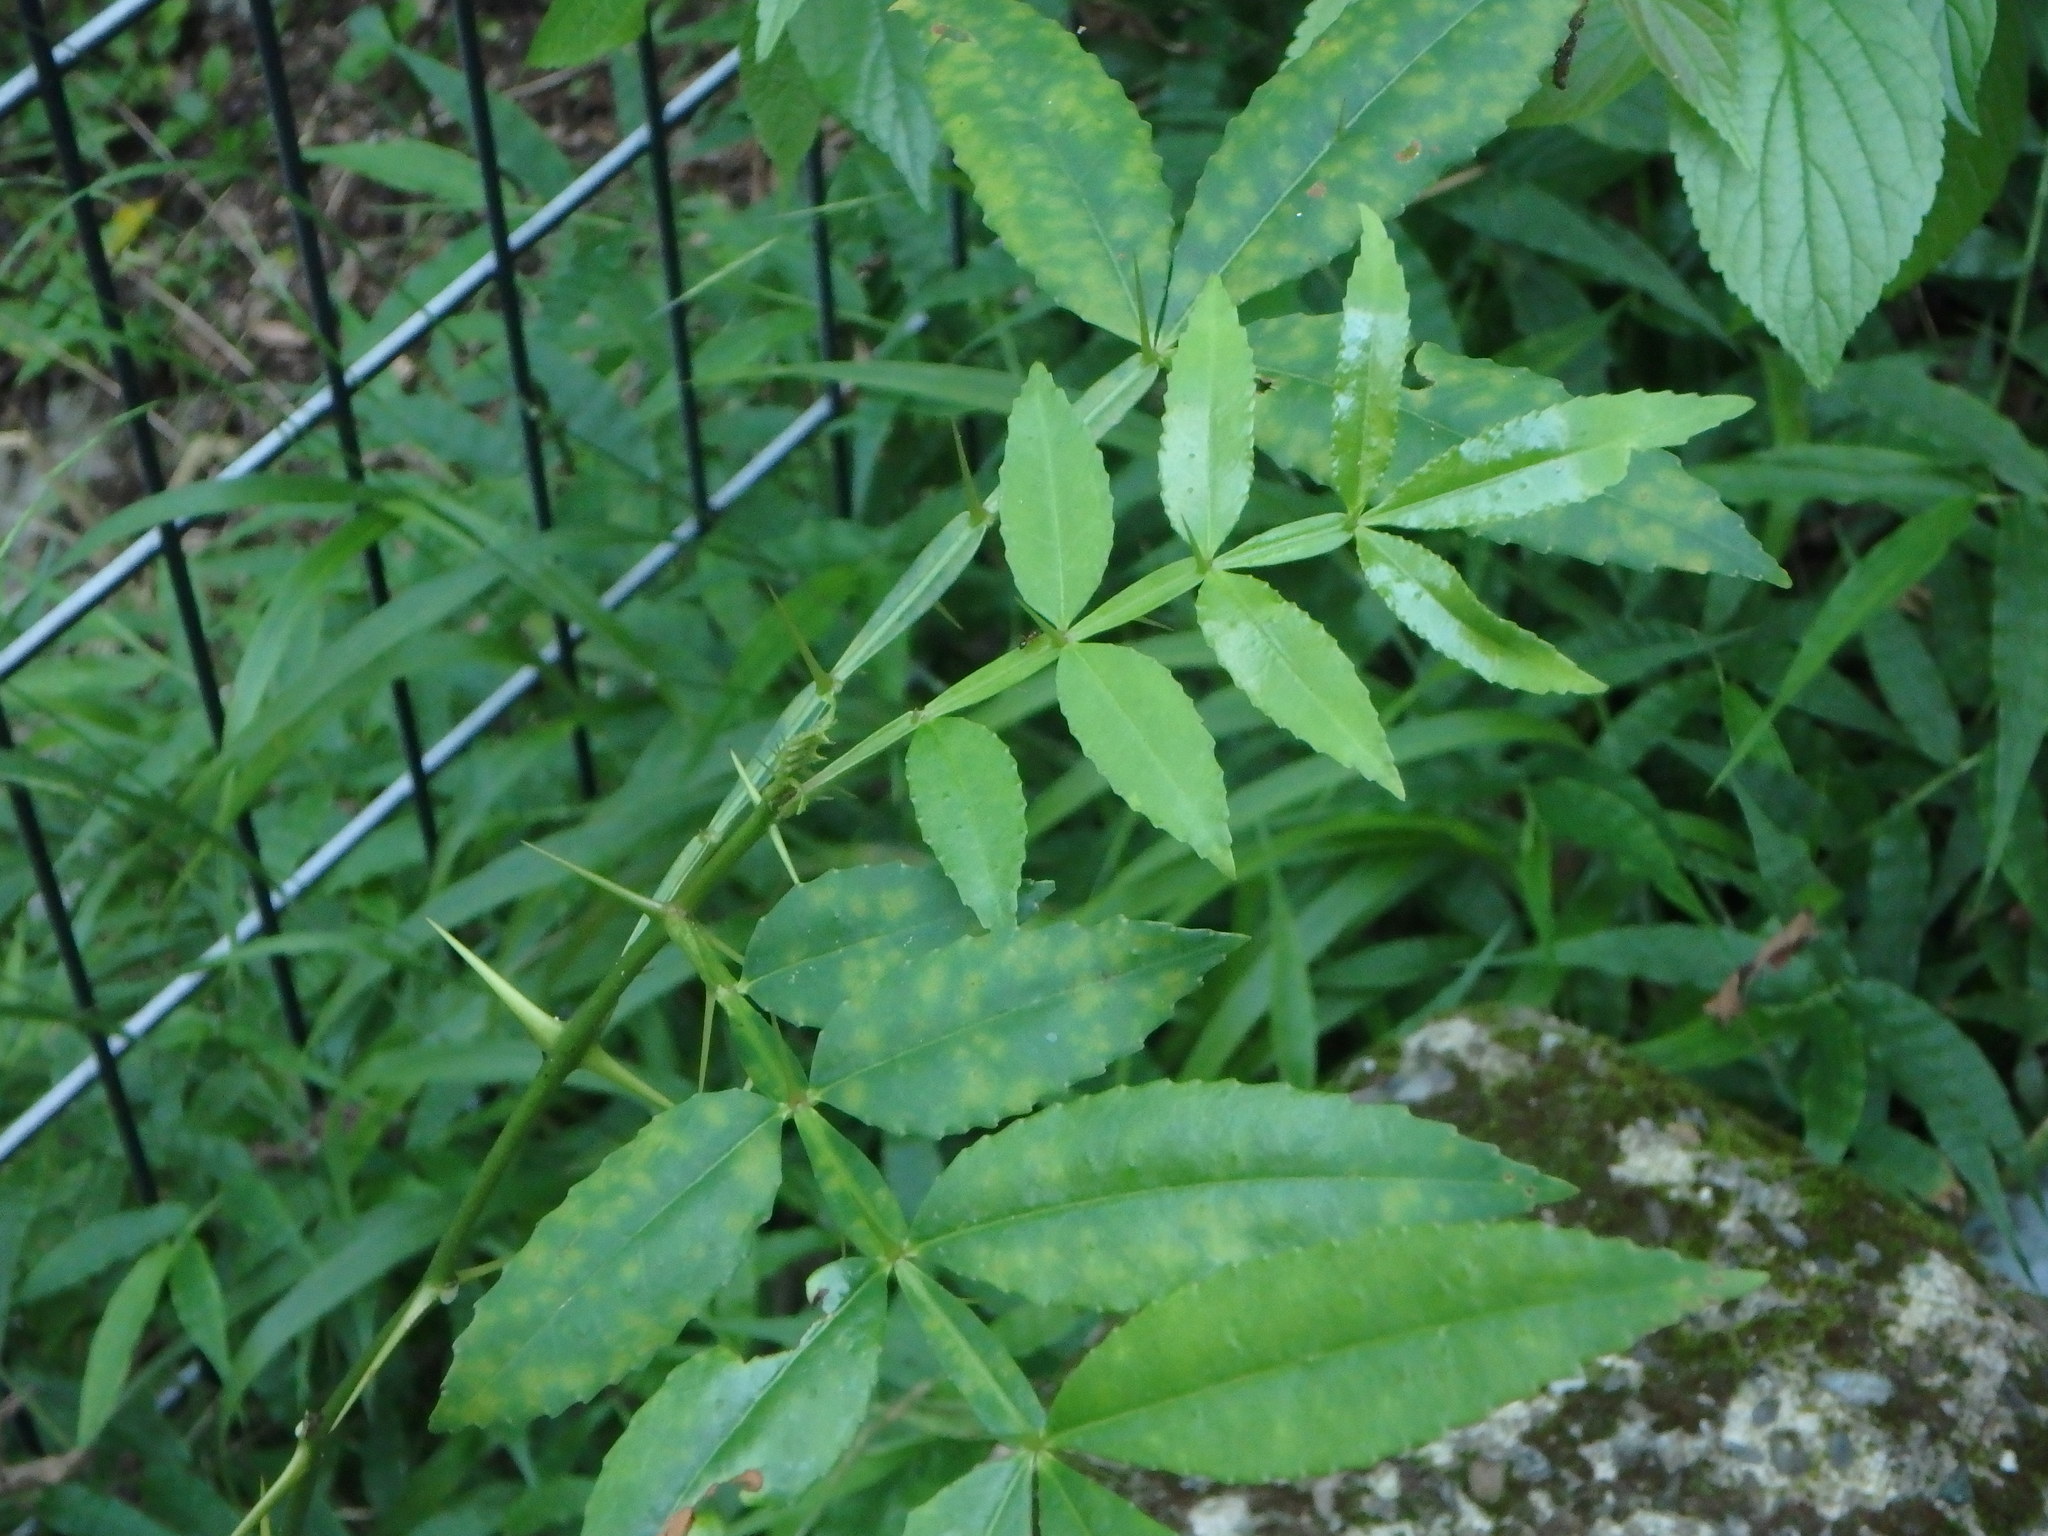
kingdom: Plantae
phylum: Tracheophyta
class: Magnoliopsida
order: Sapindales
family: Rutaceae
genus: Zanthoxylum
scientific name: Zanthoxylum armatum
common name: Winged prickly-ash
